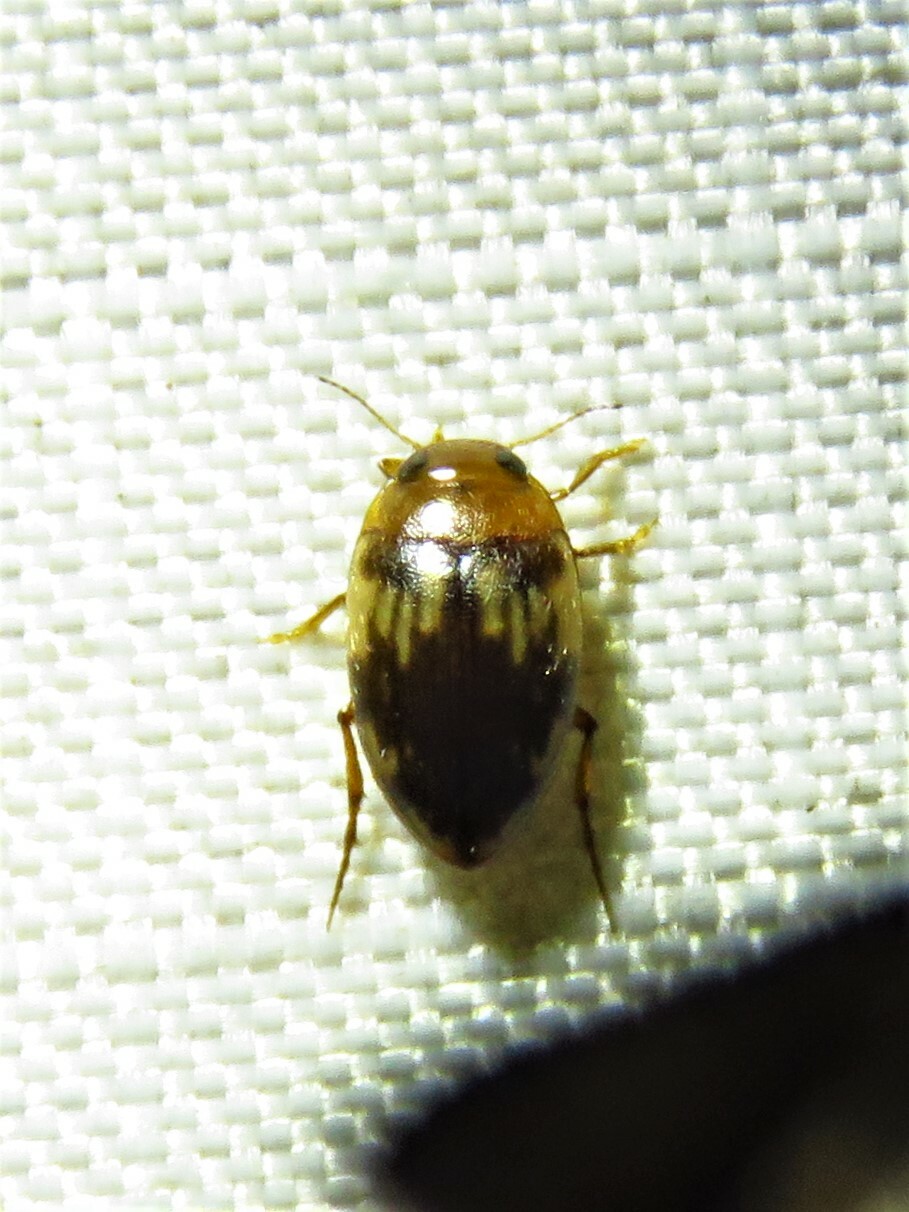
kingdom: Animalia
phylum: Arthropoda
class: Insecta
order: Coleoptera
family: Dytiscidae
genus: Neoporus
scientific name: Neoporus
